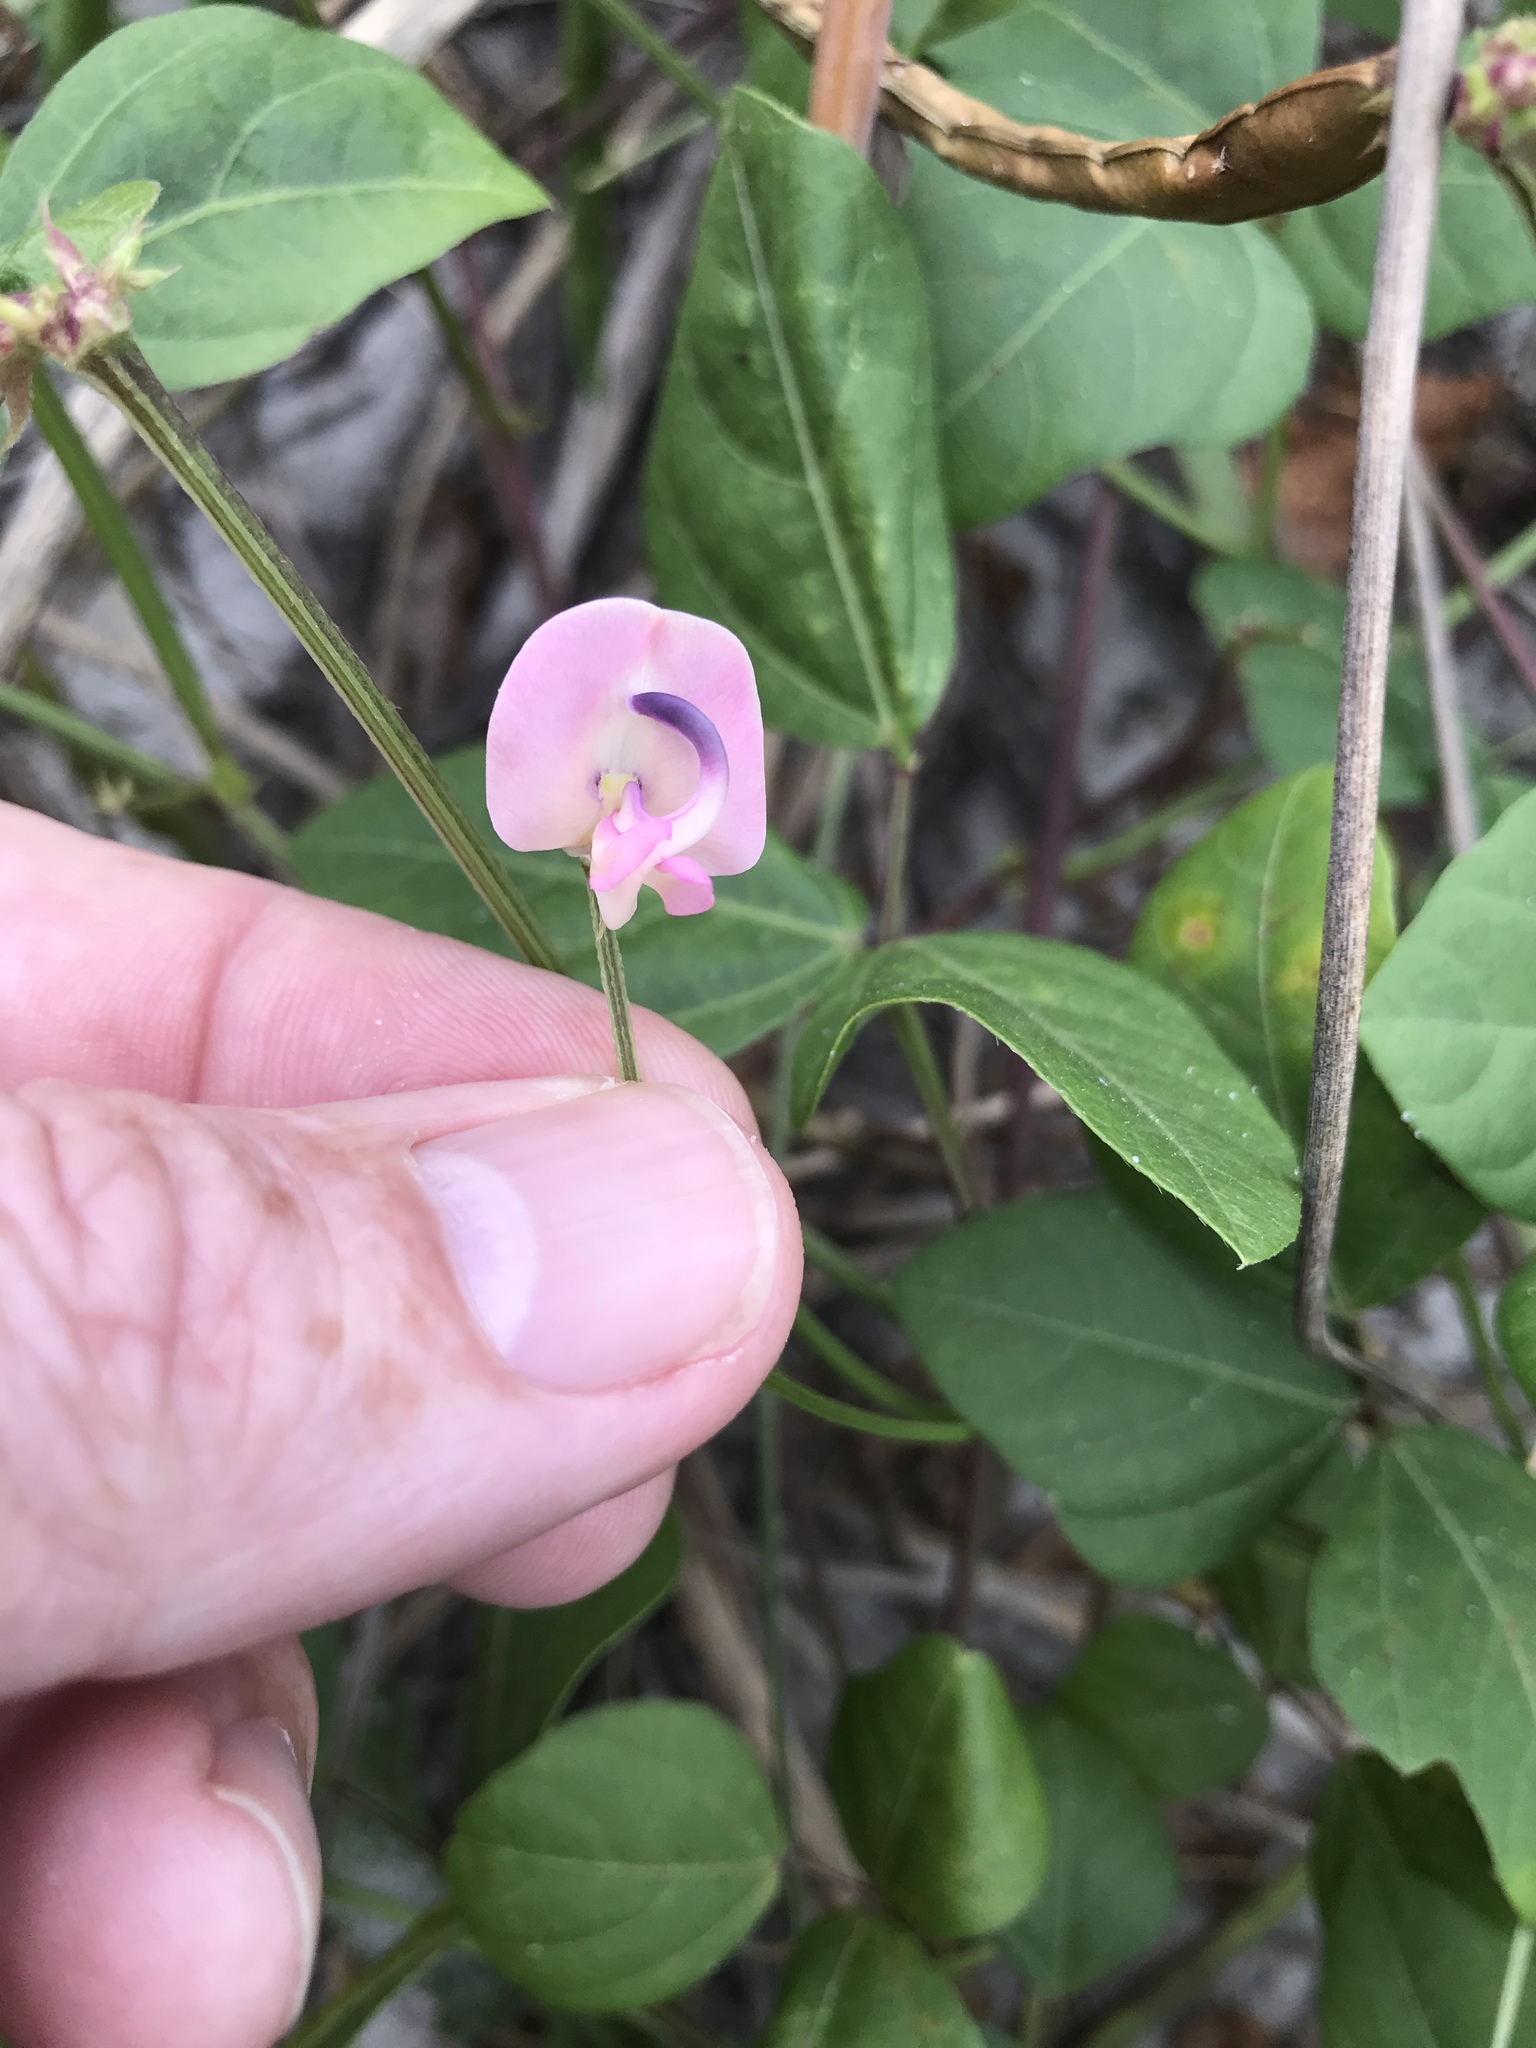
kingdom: Plantae
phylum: Tracheophyta
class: Magnoliopsida
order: Fabales
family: Fabaceae
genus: Strophostyles
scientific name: Strophostyles helvola
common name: Trailing wild bean
